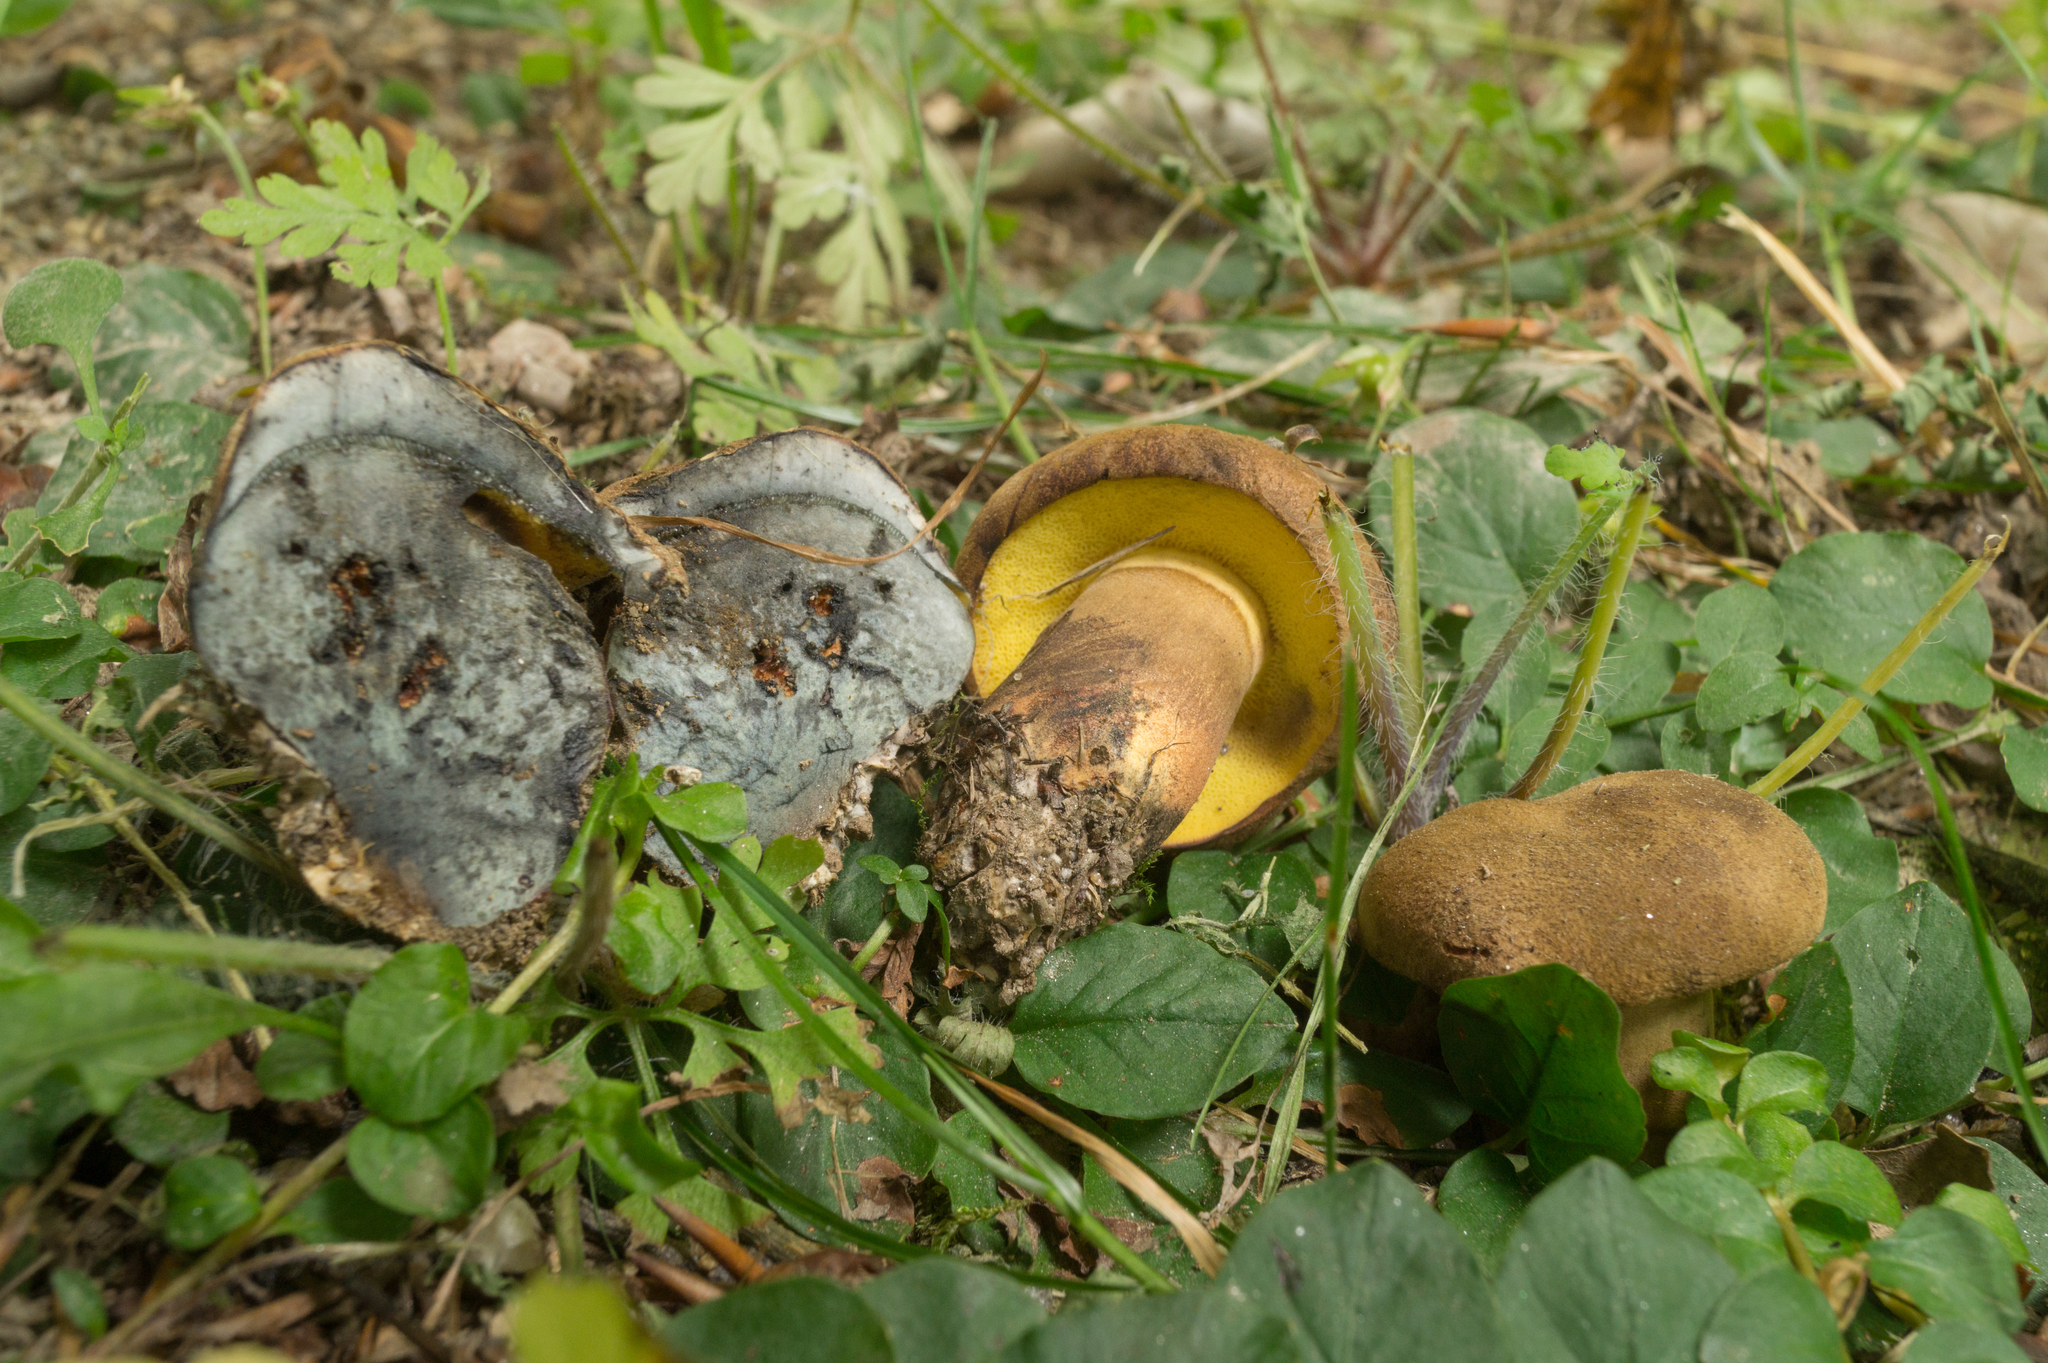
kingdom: Fungi
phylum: Basidiomycota
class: Agaricomycetes
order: Boletales
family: Boletaceae
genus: Cyanoboletus
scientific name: Cyanoboletus pulverulentus
